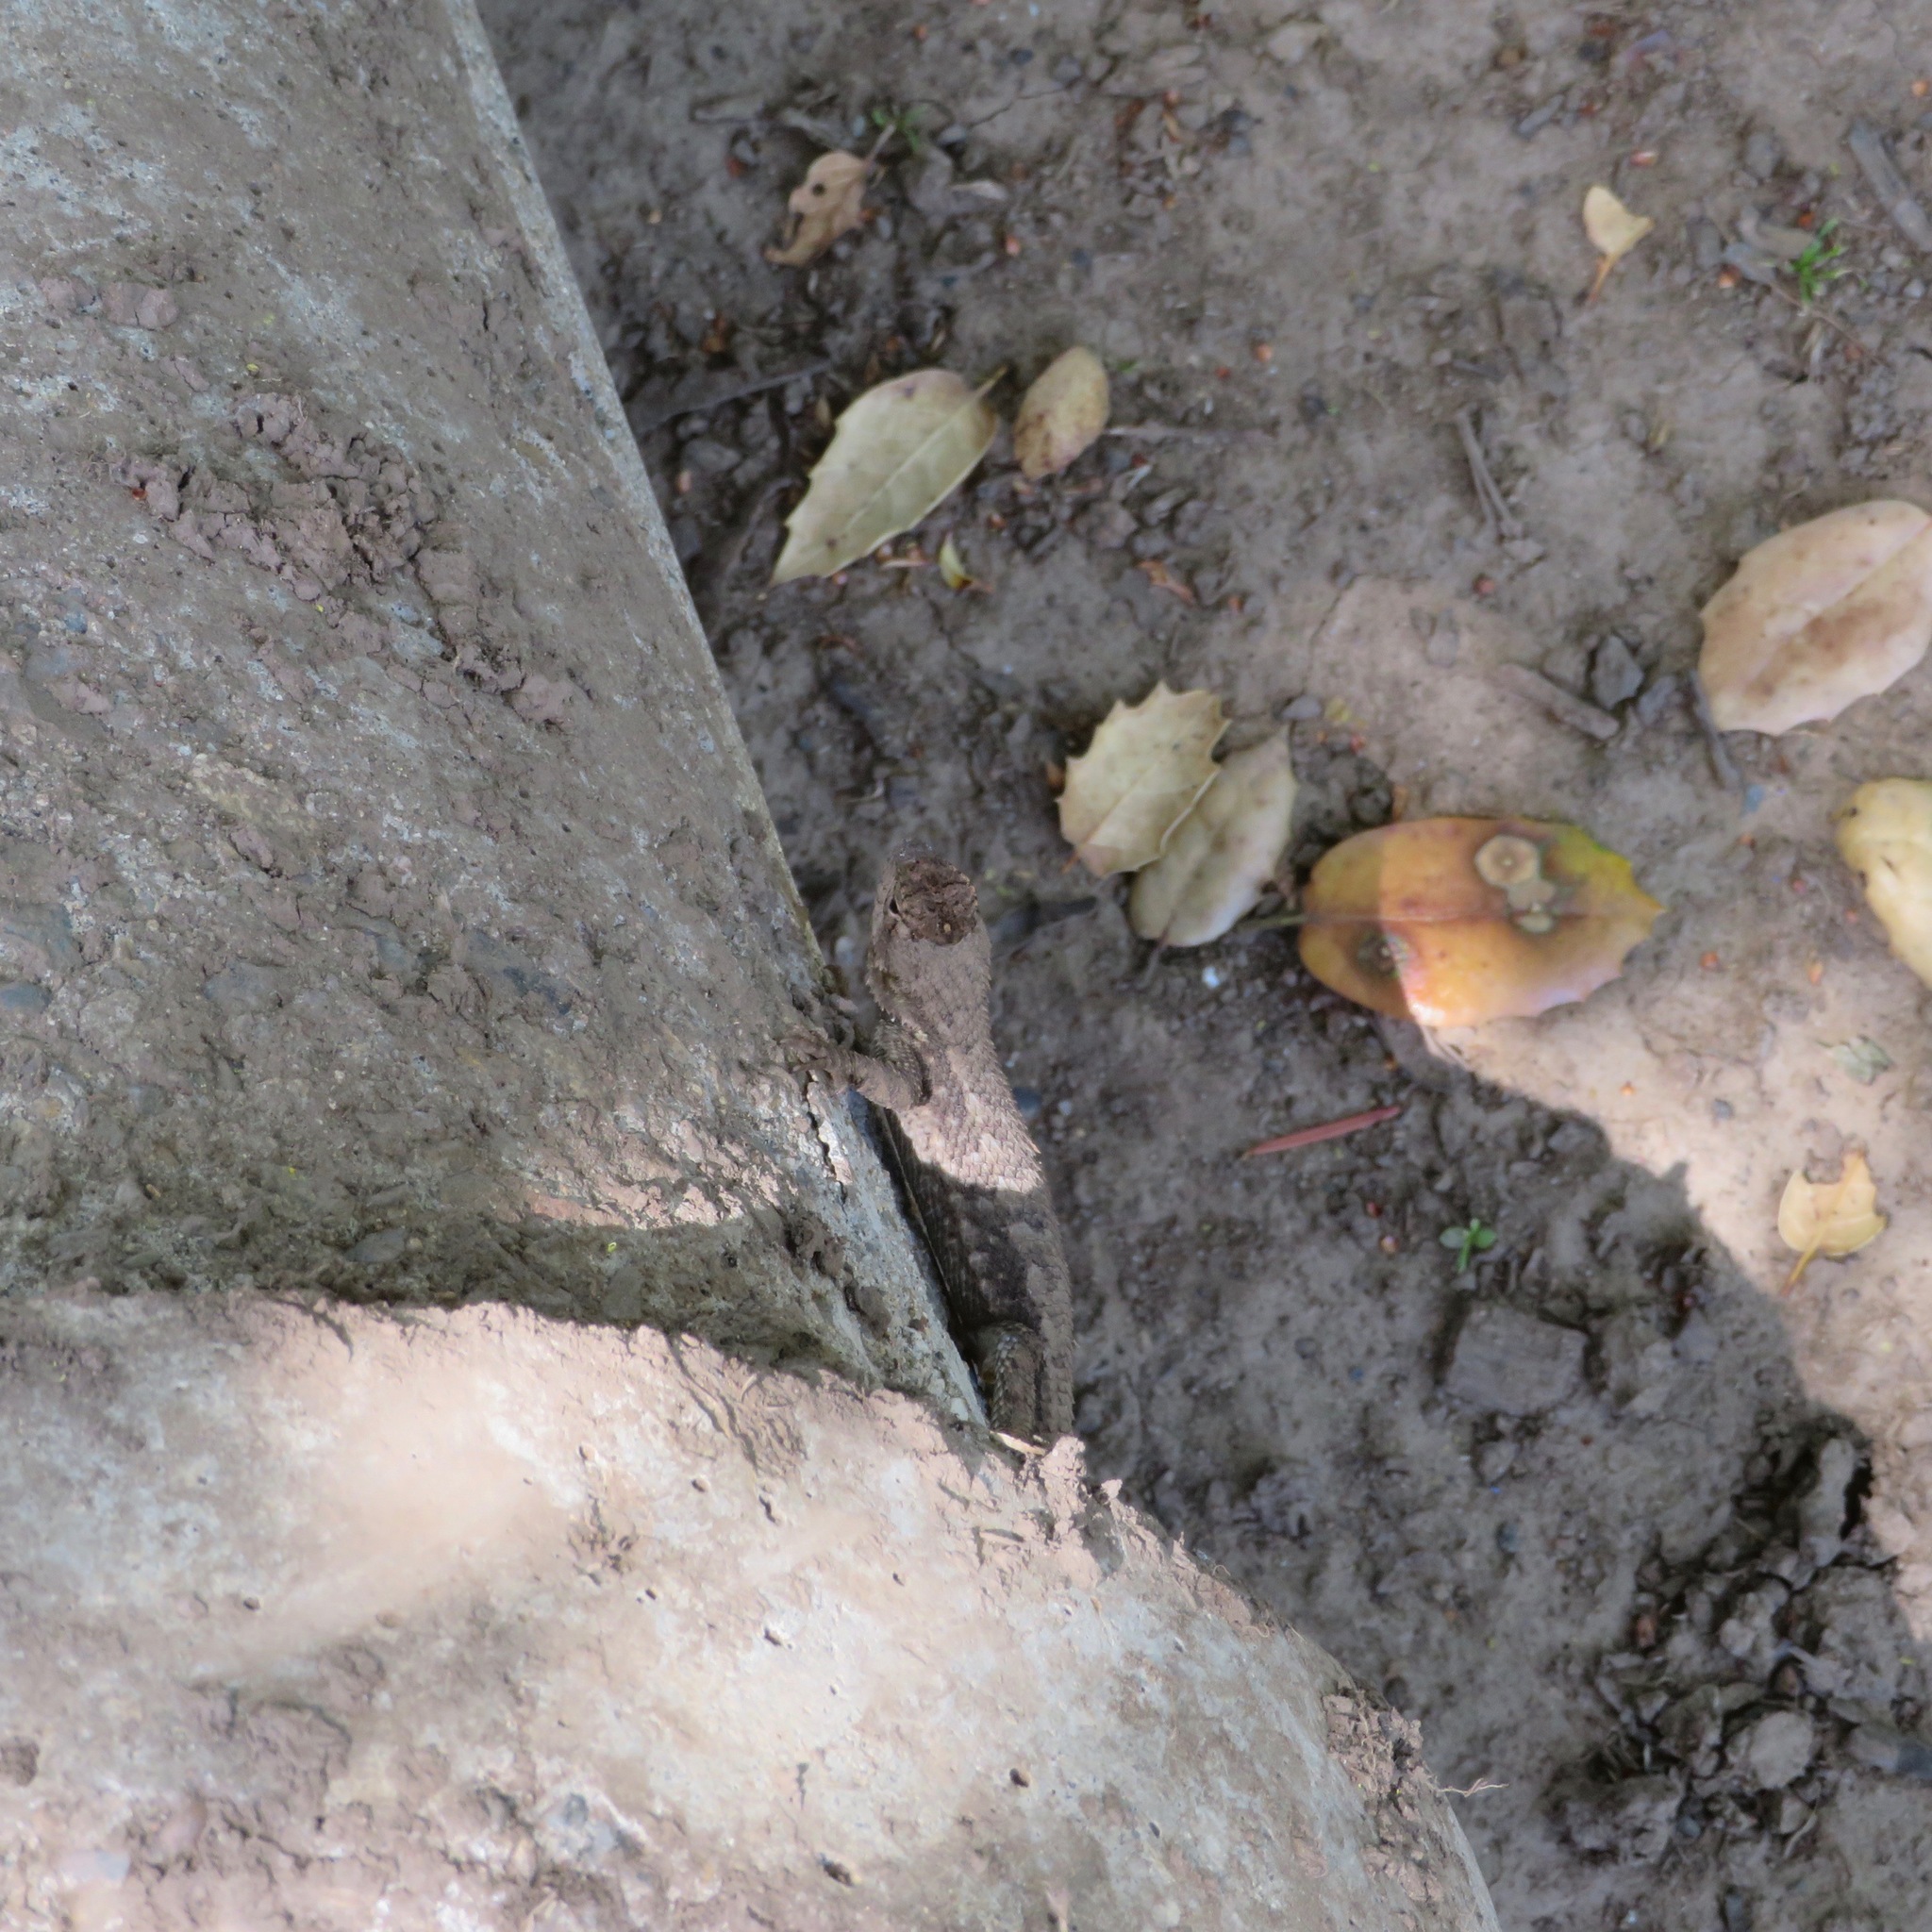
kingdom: Animalia
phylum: Chordata
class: Squamata
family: Phrynosomatidae
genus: Sceloporus
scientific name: Sceloporus occidentalis
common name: Western fence lizard
